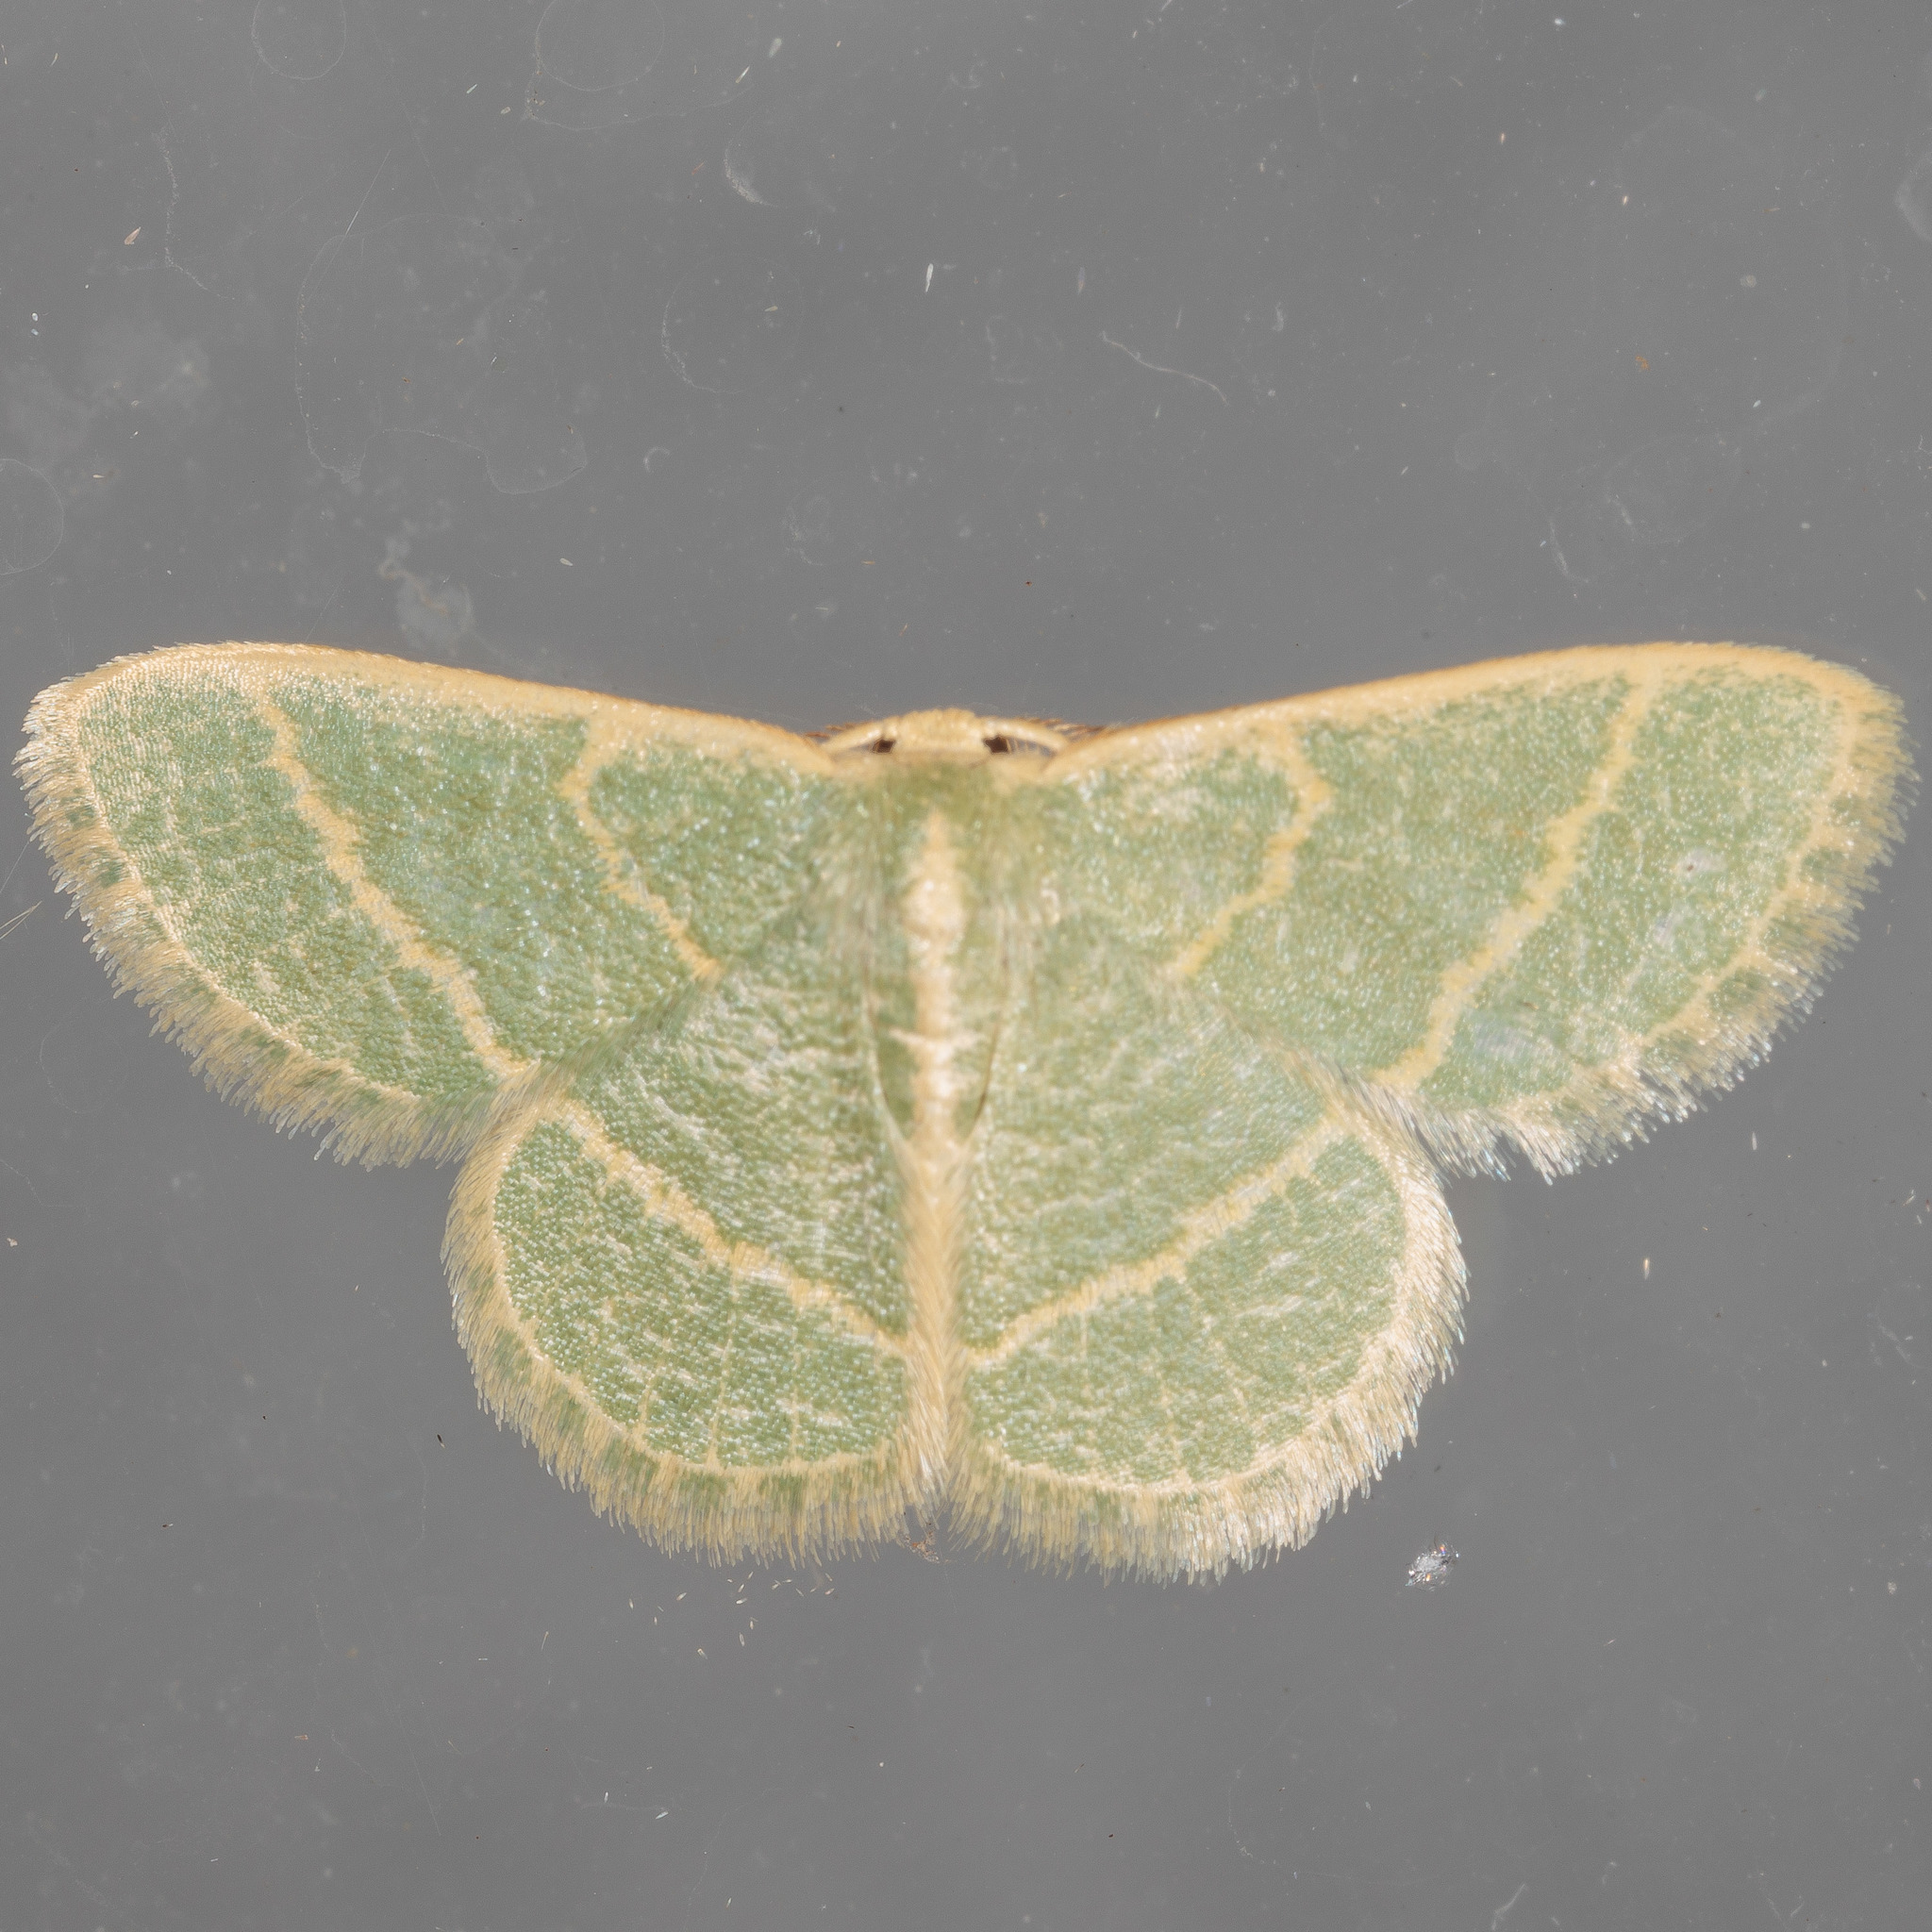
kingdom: Animalia
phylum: Arthropoda
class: Insecta
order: Lepidoptera
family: Geometridae
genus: Chlorochlamys
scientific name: Chlorochlamys chloroleucaria
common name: Blackberry looper
